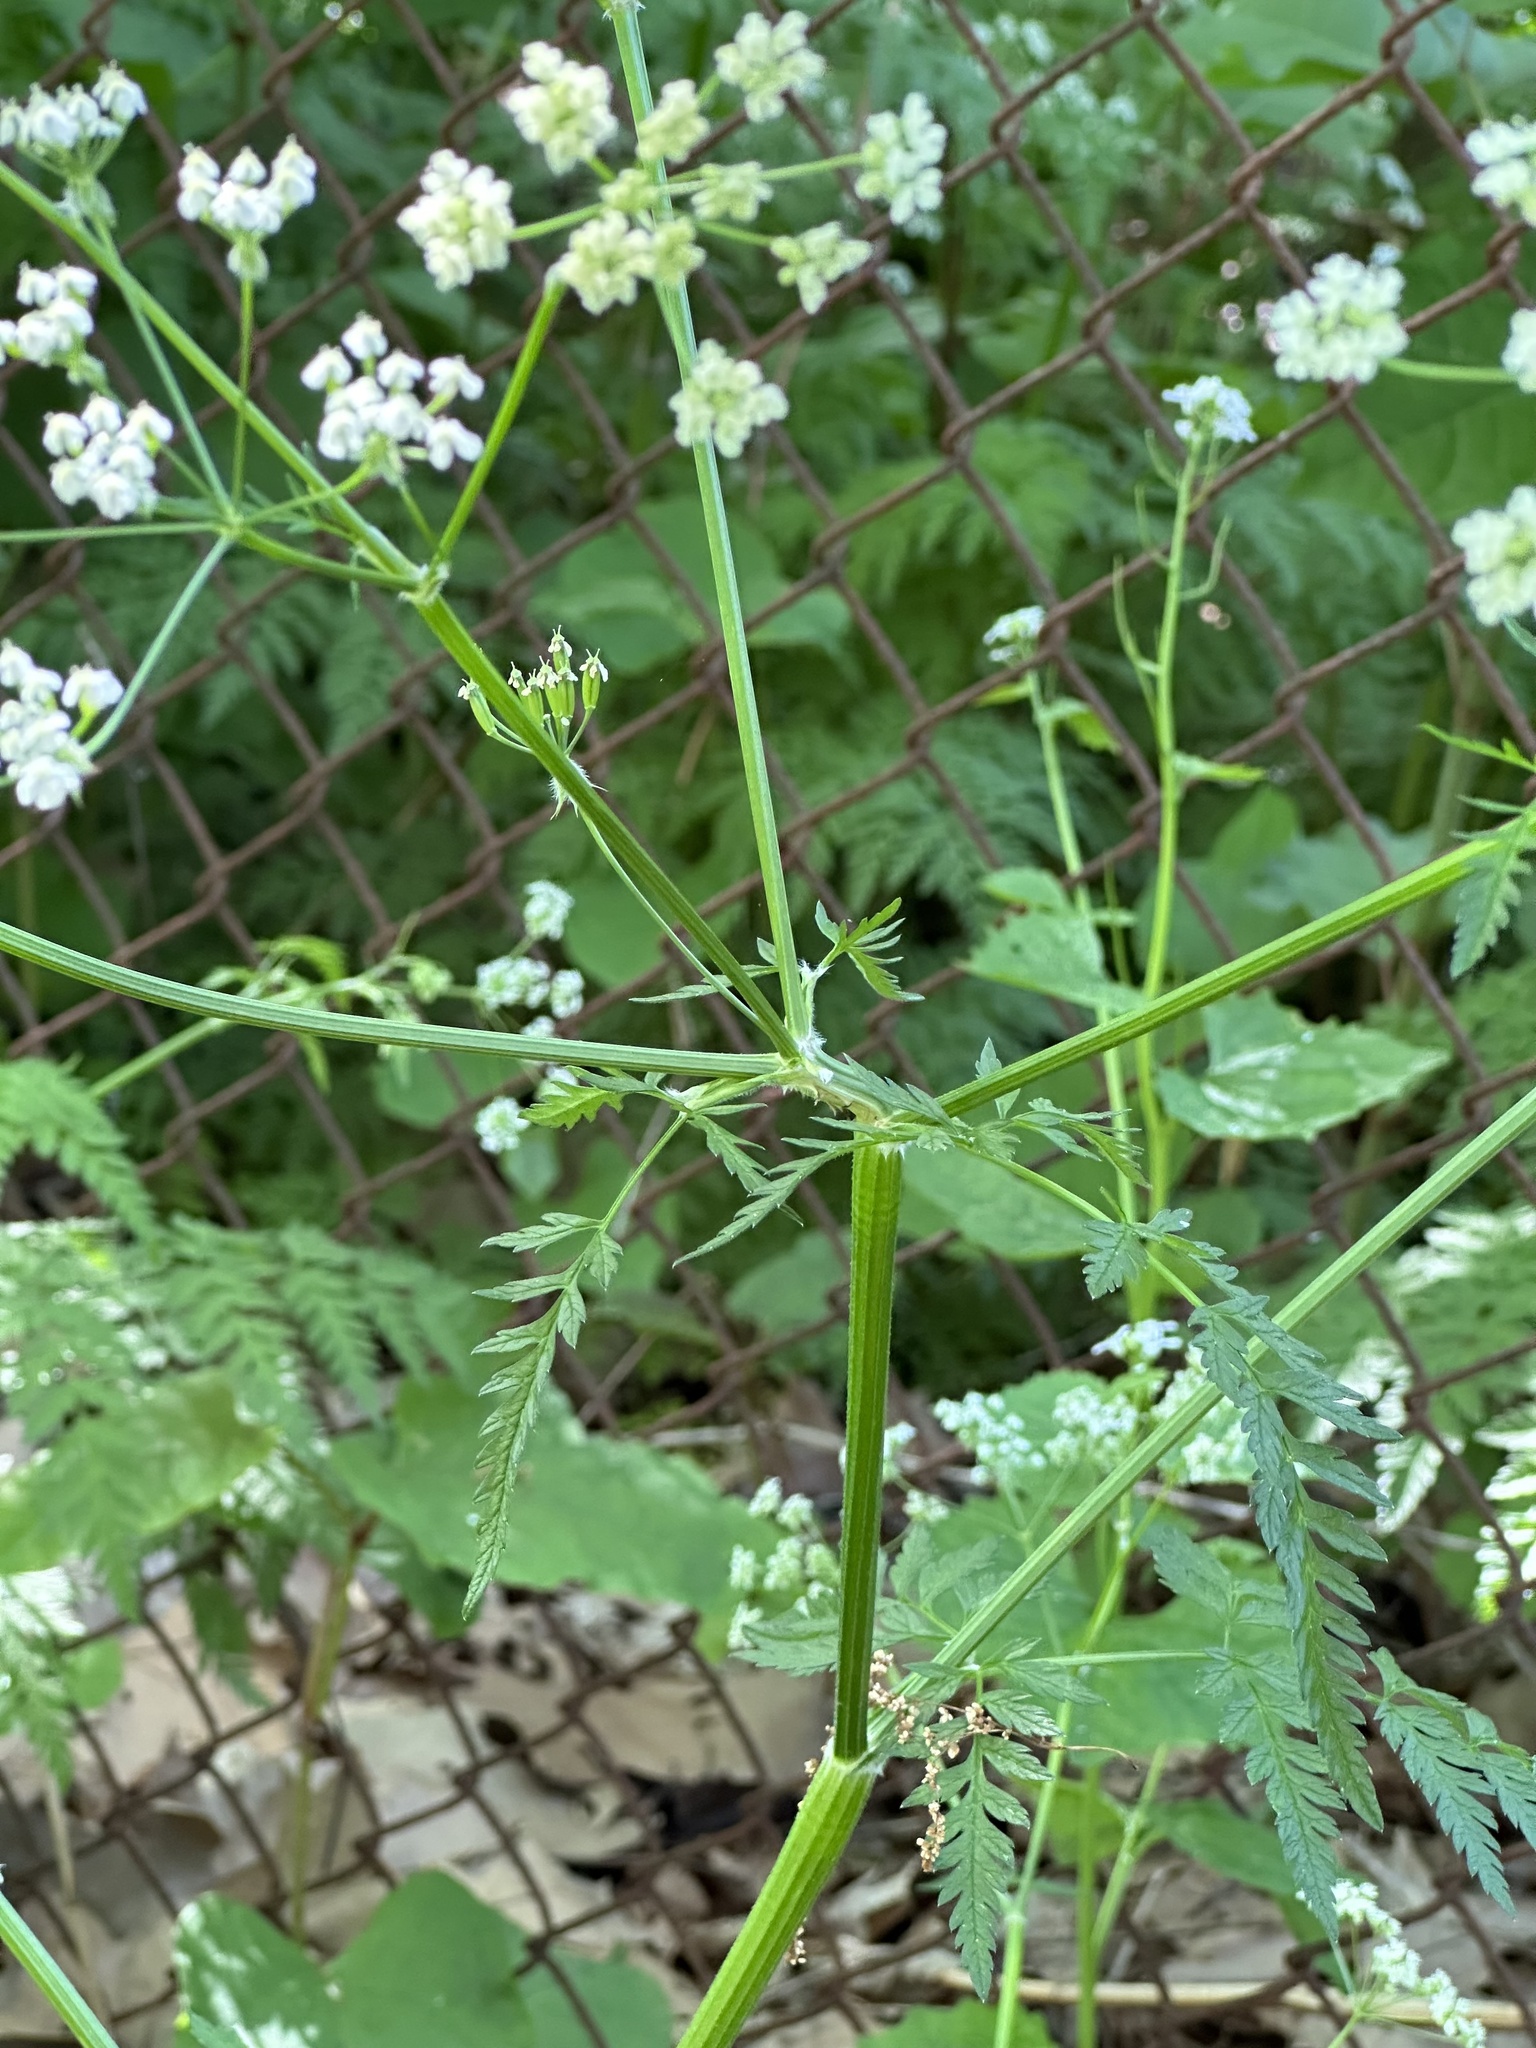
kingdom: Plantae
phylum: Tracheophyta
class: Magnoliopsida
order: Apiales
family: Apiaceae
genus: Anthriscus
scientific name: Anthriscus sylvestris
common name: Cow parsley
